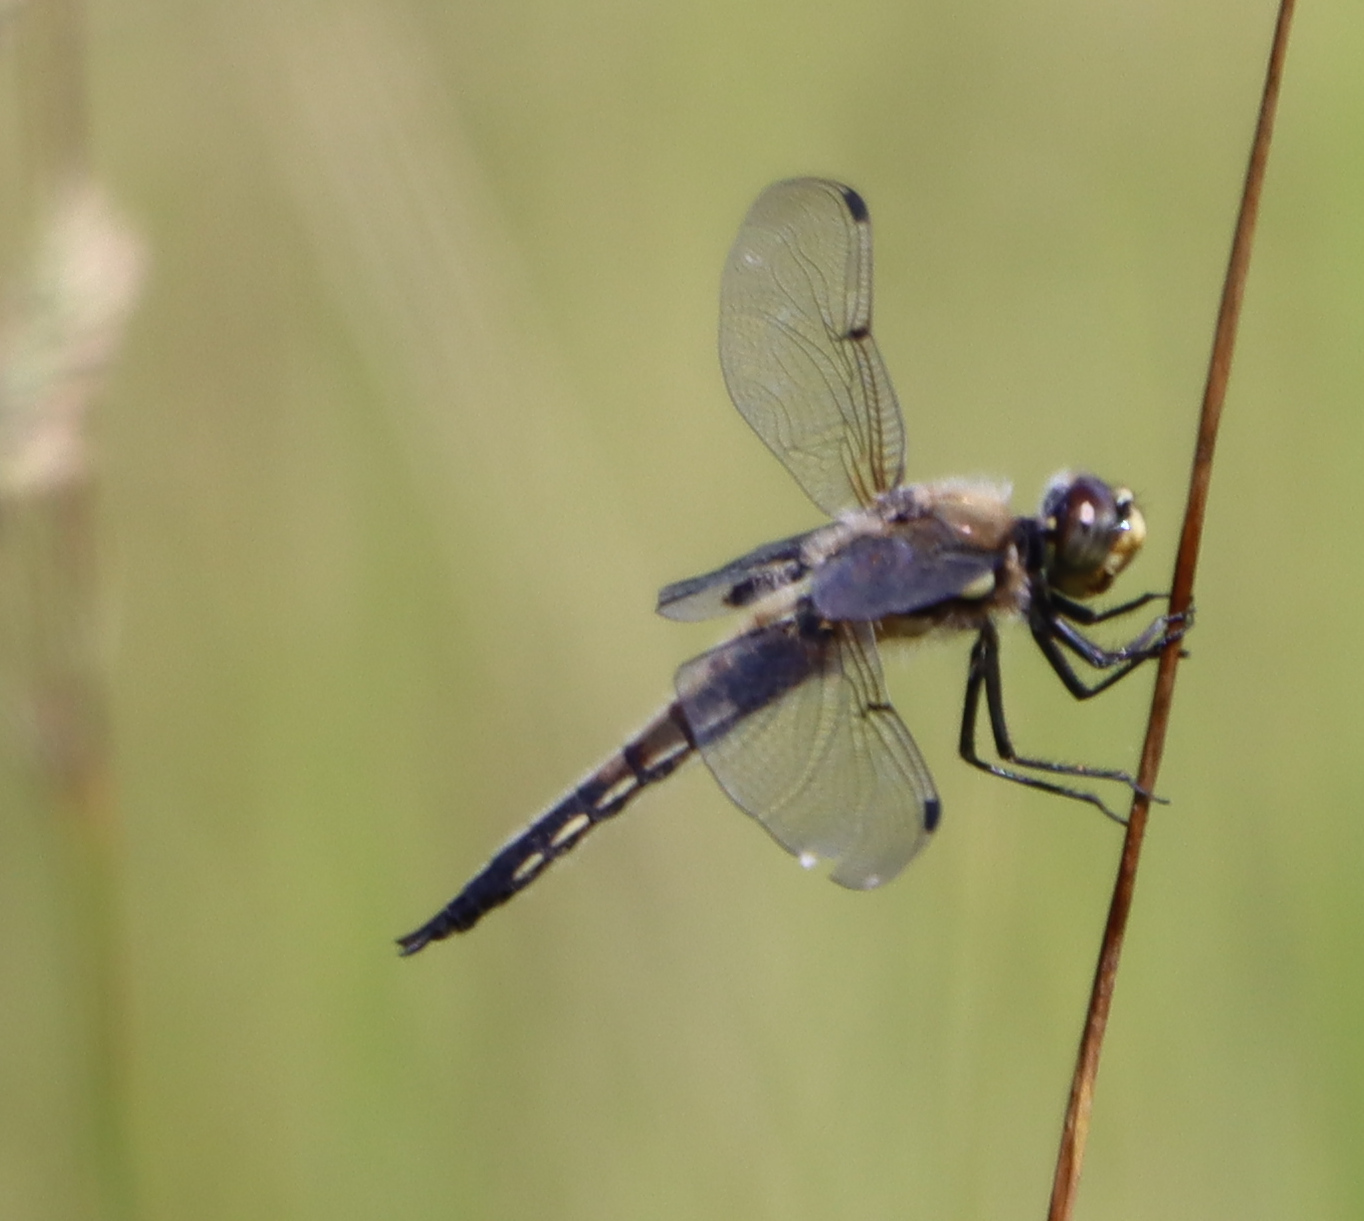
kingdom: Animalia
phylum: Arthropoda
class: Insecta
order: Odonata
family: Libellulidae
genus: Libellula
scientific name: Libellula quadrimaculata
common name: Four-spotted chaser
